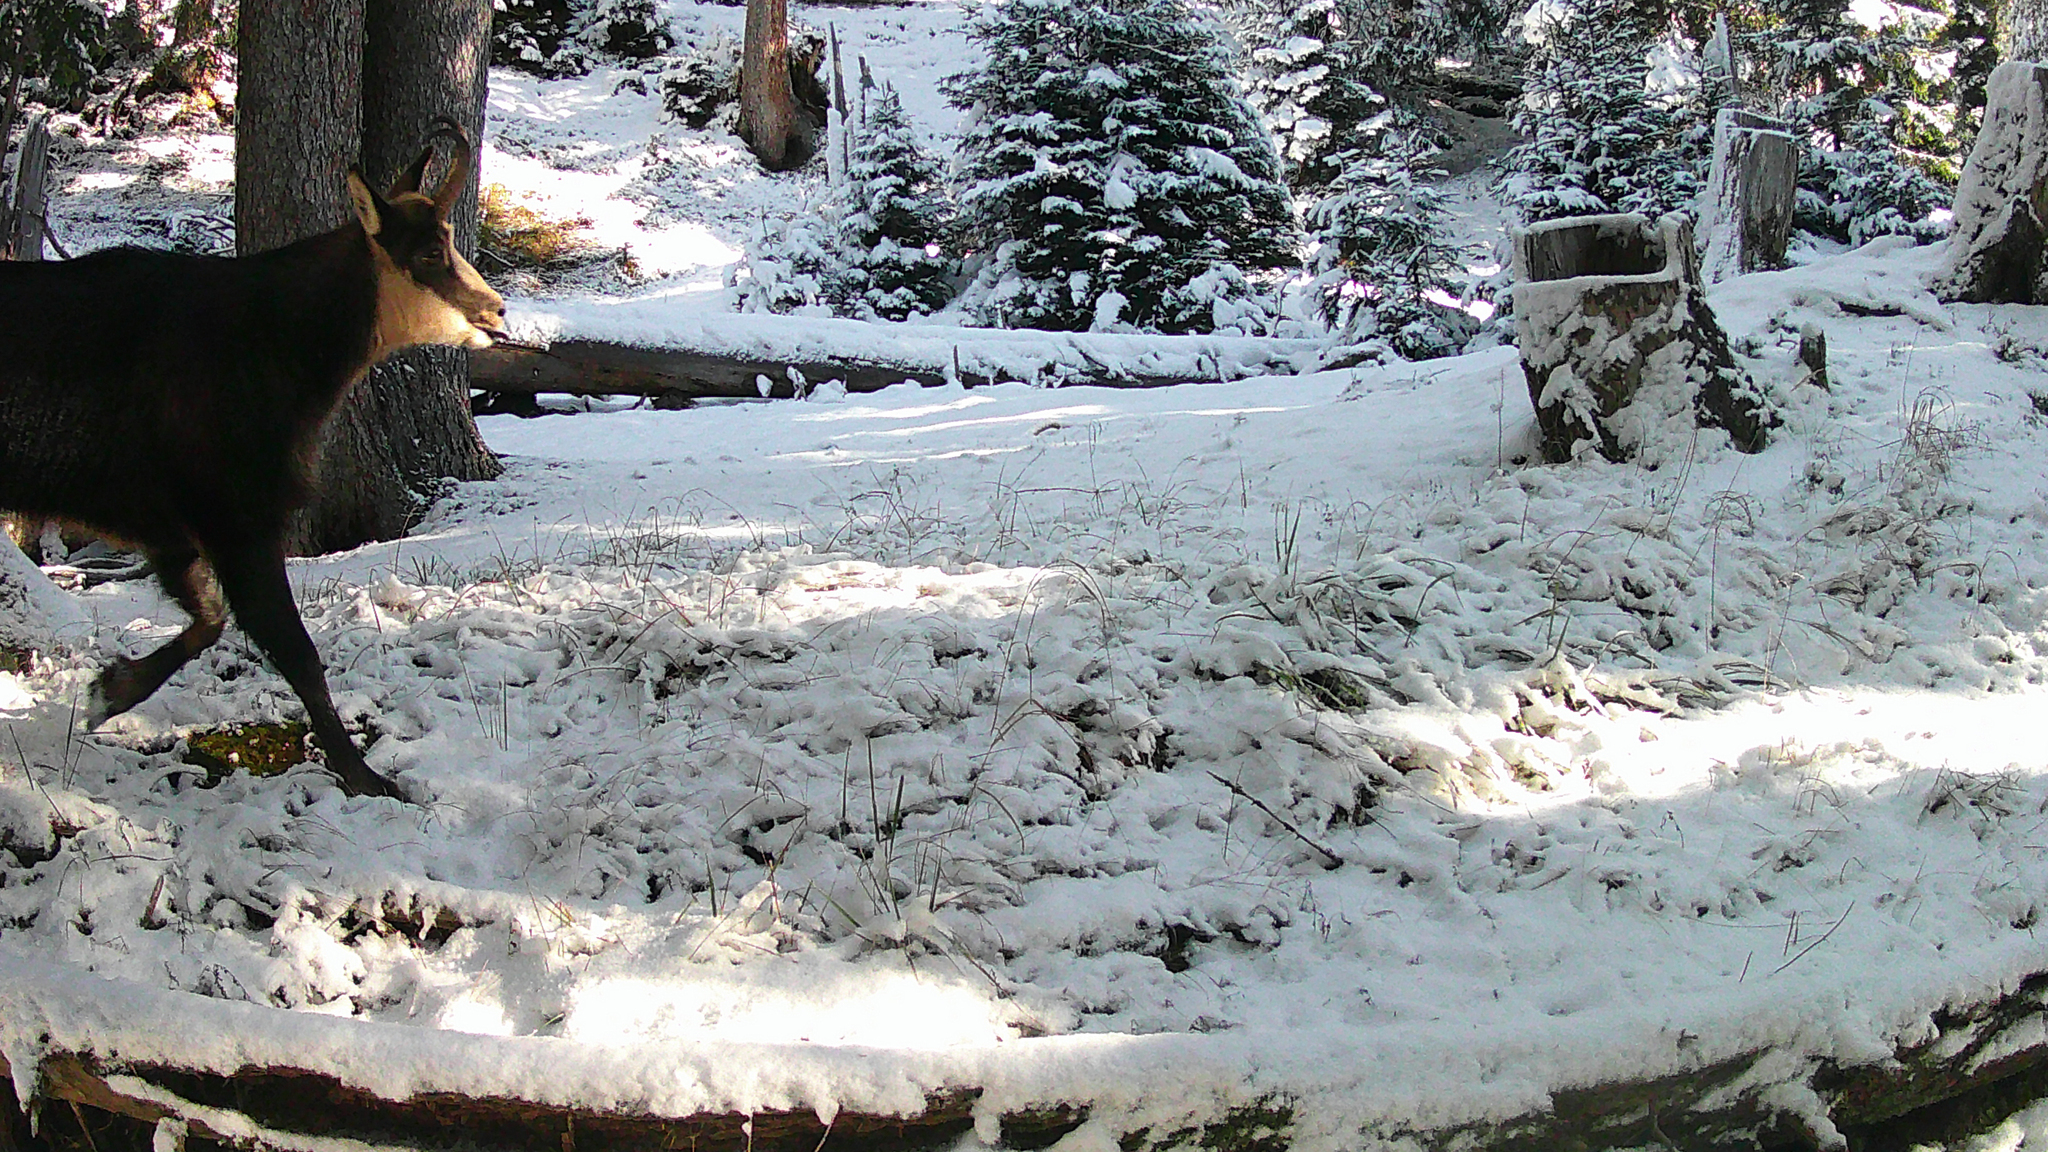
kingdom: Animalia
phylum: Chordata
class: Mammalia
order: Artiodactyla
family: Bovidae
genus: Rupicapra
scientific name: Rupicapra rupicapra
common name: Chamois
